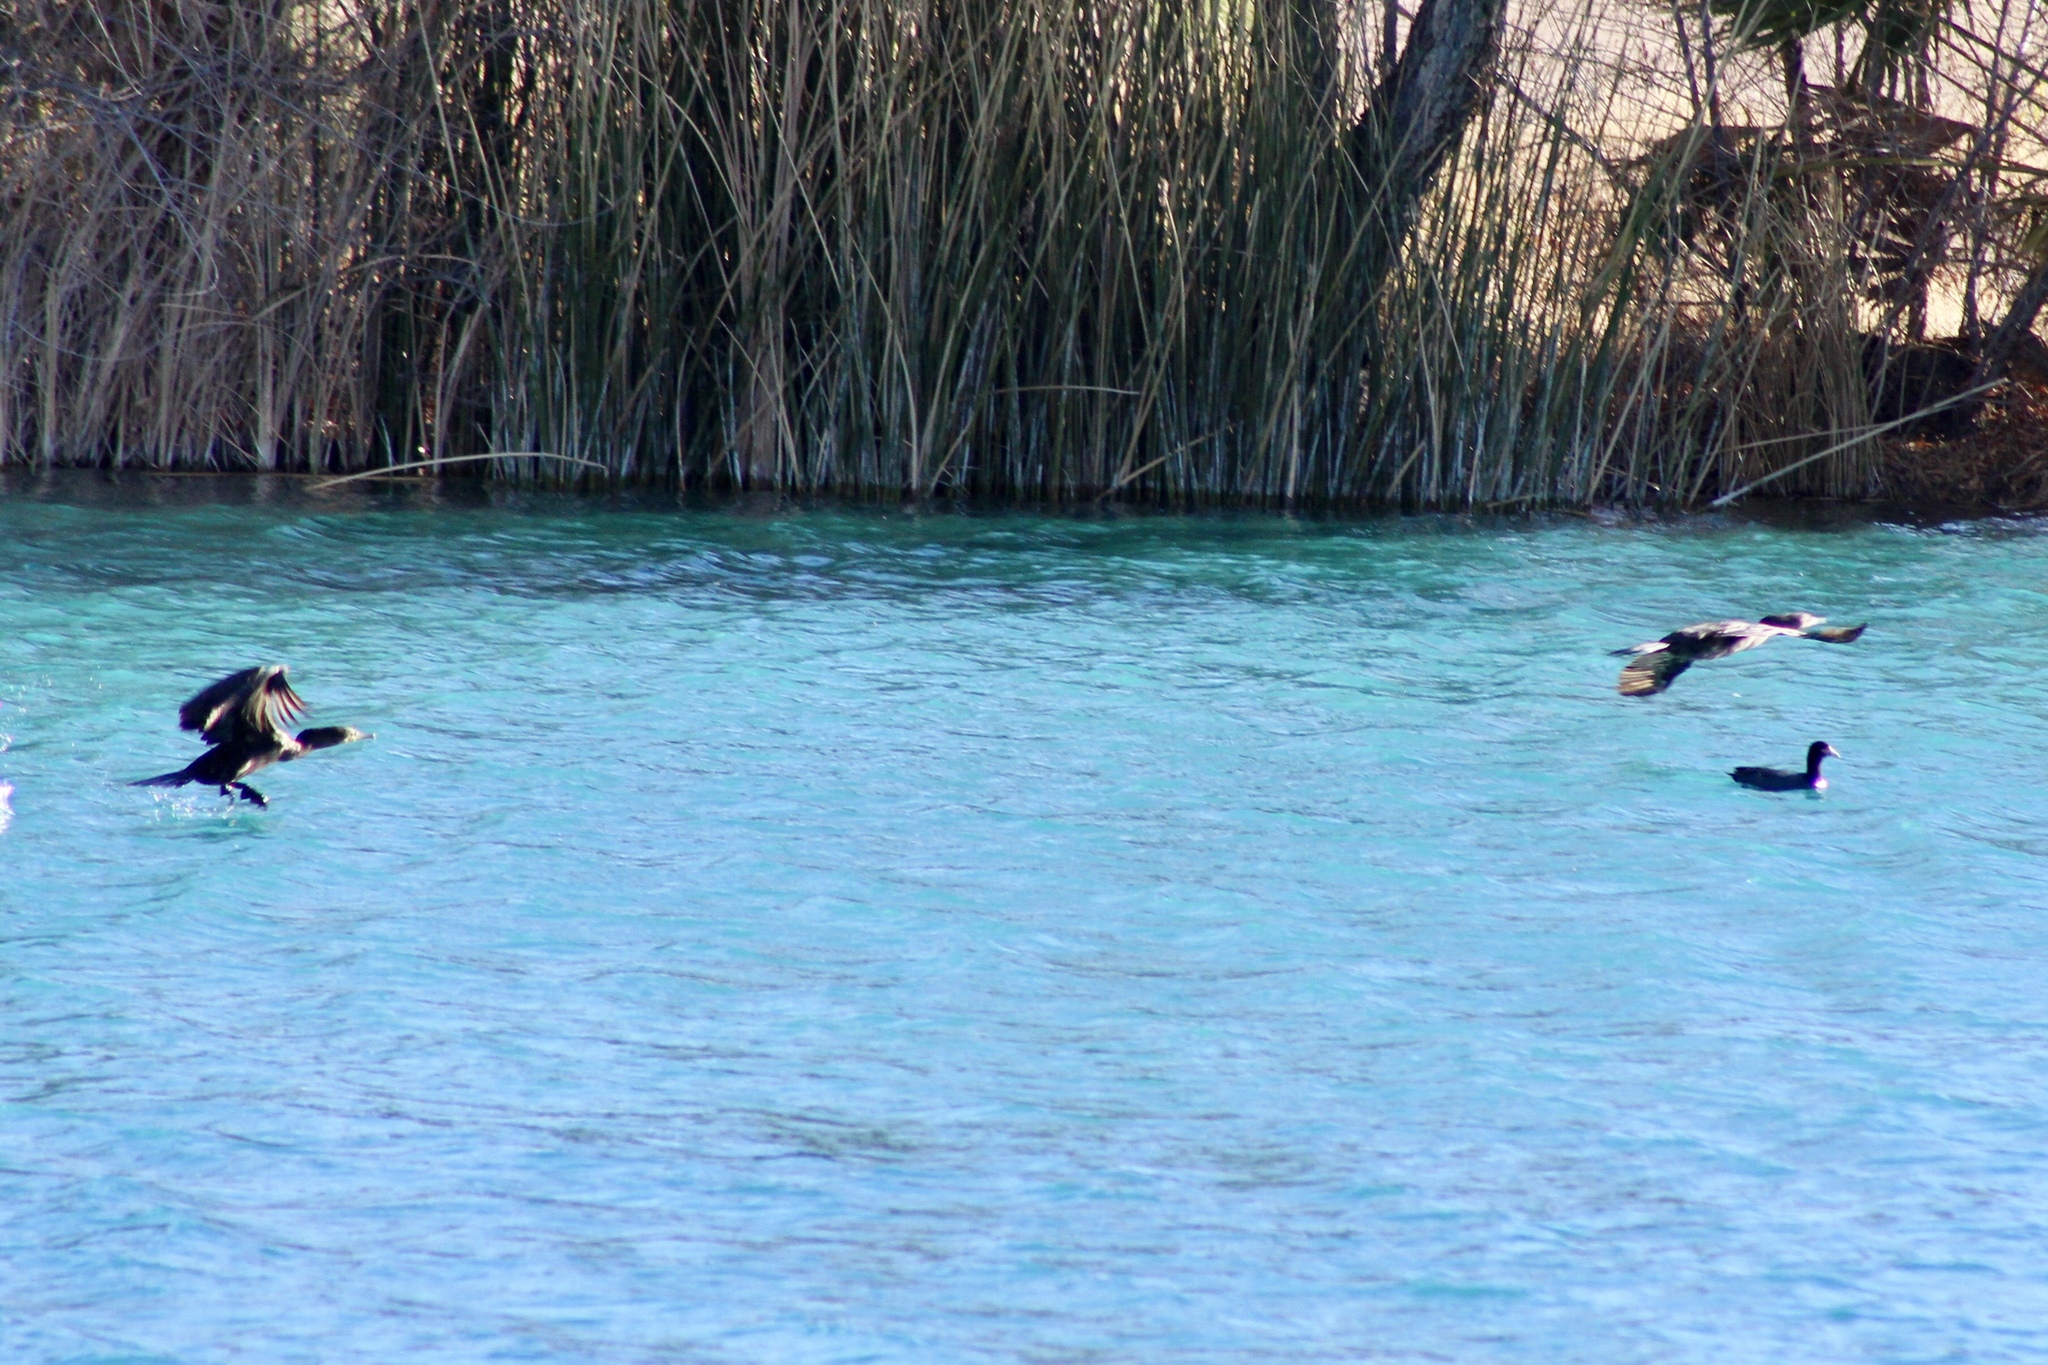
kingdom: Animalia
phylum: Chordata
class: Aves
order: Suliformes
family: Phalacrocoracidae
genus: Phalacrocorax
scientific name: Phalacrocorax brasilianus
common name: Neotropic cormorant
